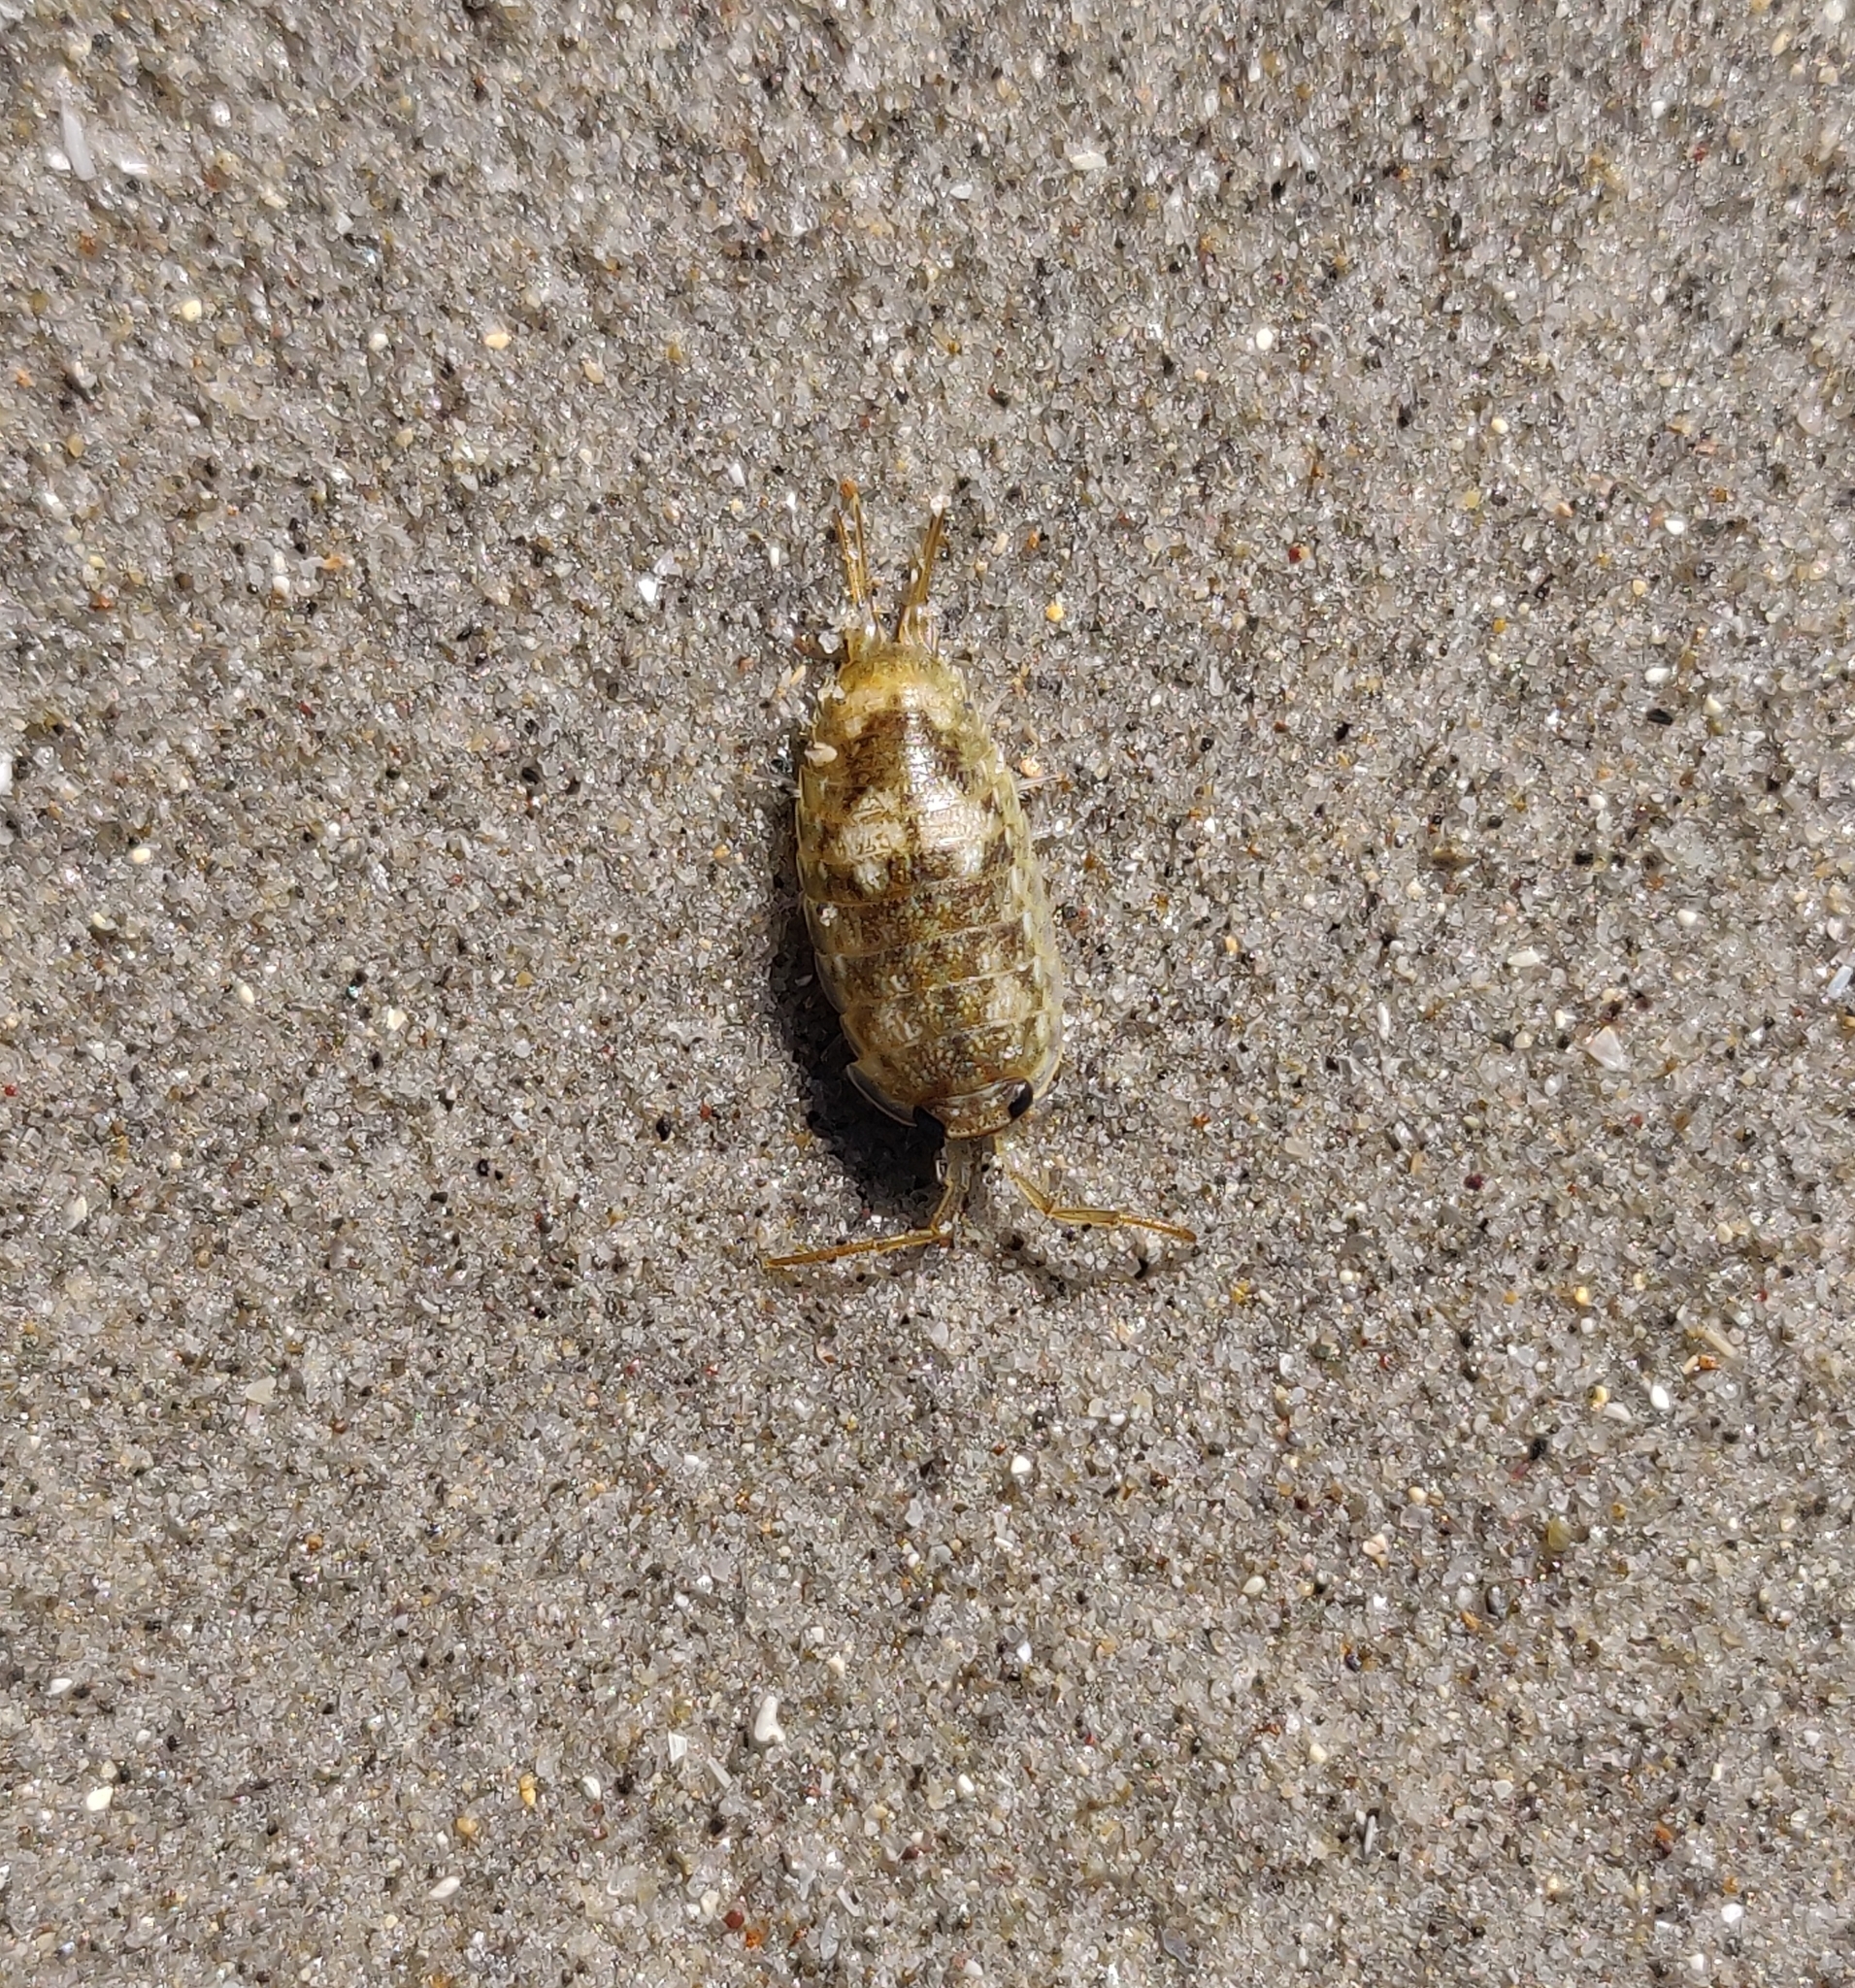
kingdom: Animalia
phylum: Arthropoda
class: Malacostraca
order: Isopoda
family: Ligiidae
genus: Ligia
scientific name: Ligia oceanica
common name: Sea slater
